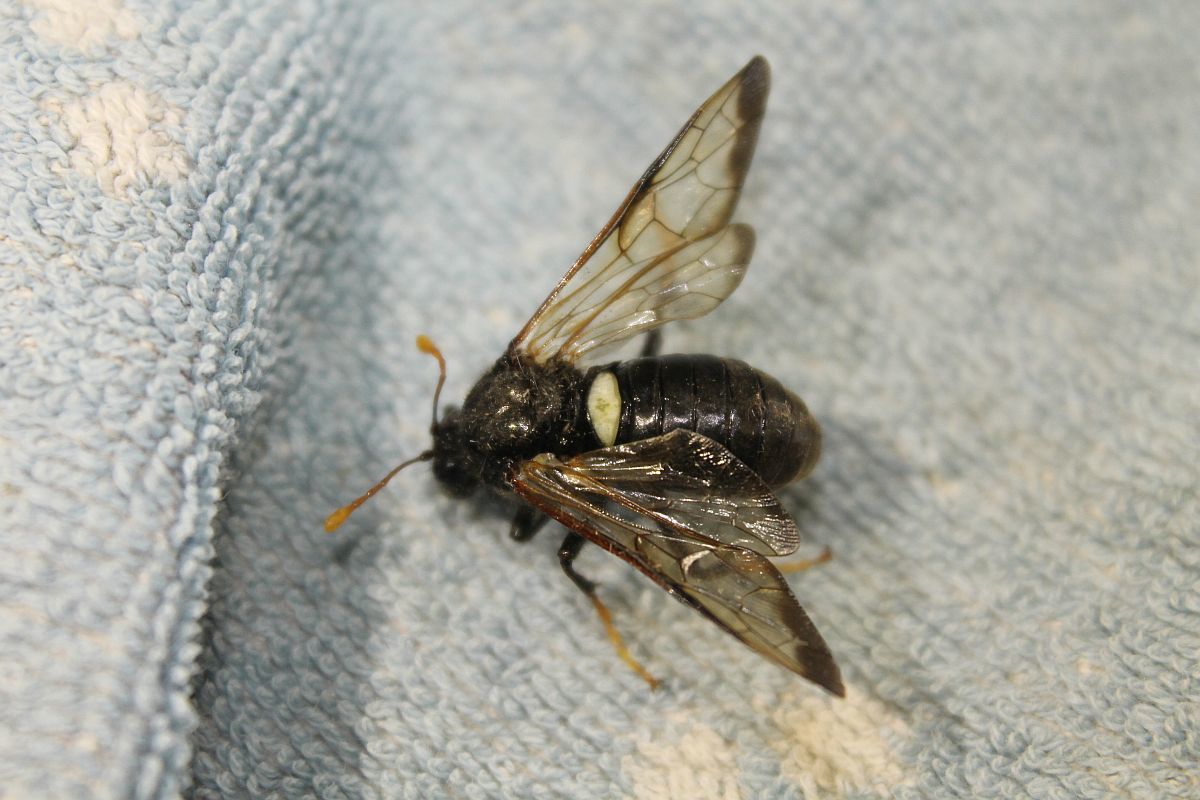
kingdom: Animalia
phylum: Arthropoda
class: Insecta
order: Hymenoptera
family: Cimbicidae
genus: Cimbex
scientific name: Cimbex femoratus
